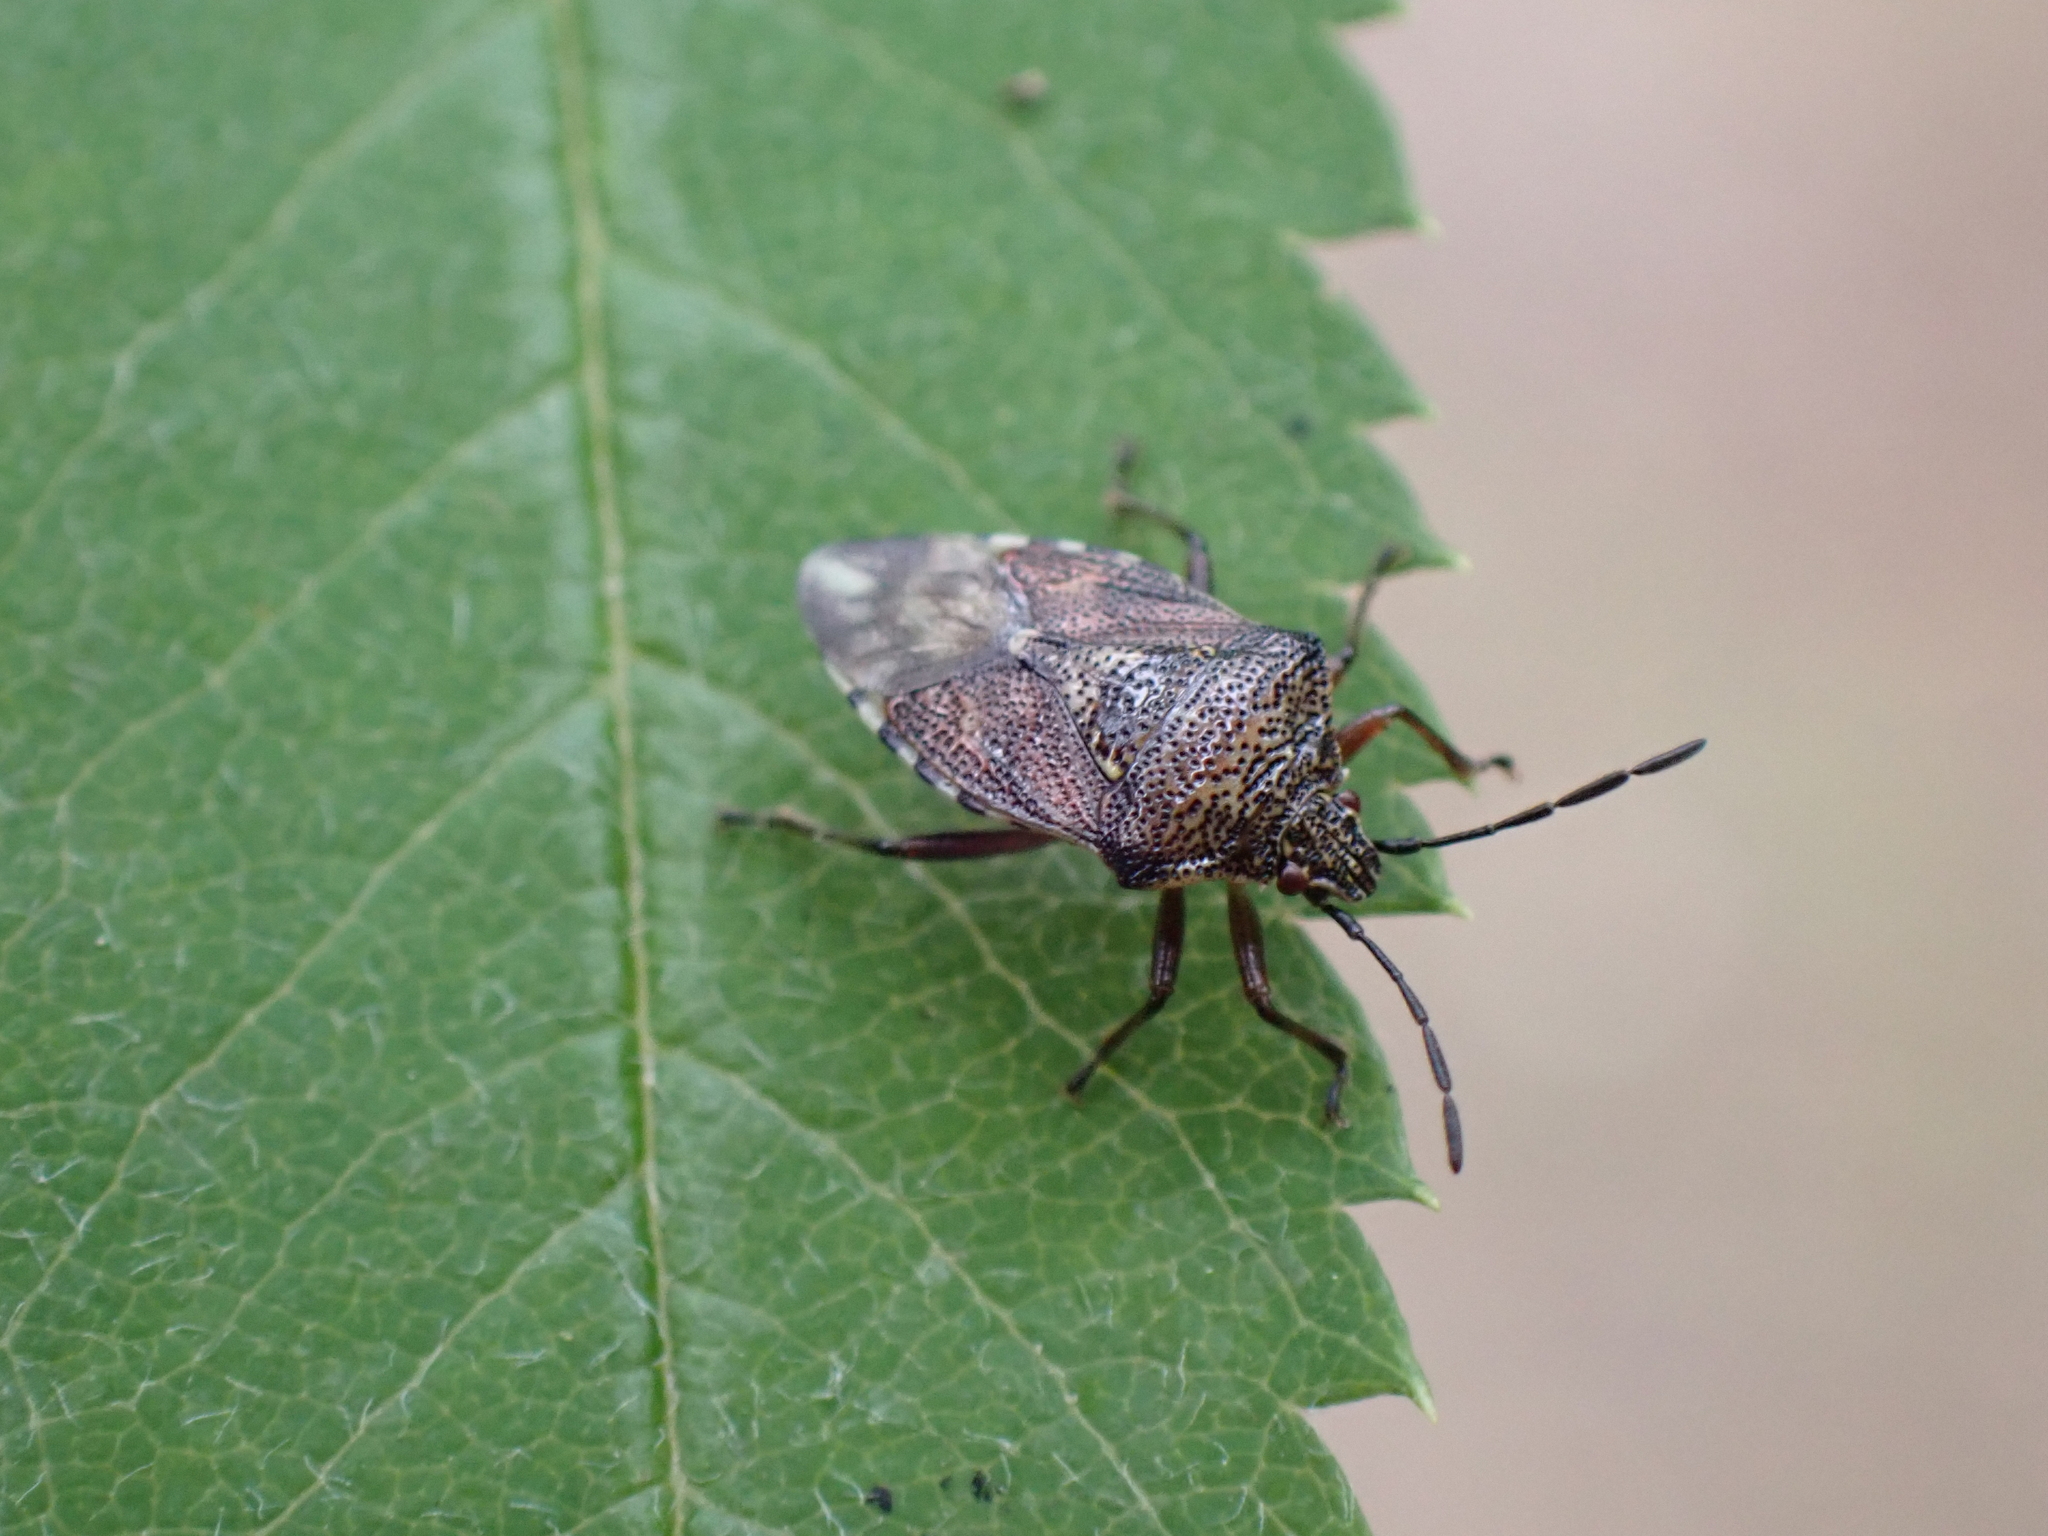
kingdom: Animalia
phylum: Arthropoda
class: Insecta
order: Hemiptera
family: Acanthosomatidae
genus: Elasmucha
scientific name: Elasmucha fieberi
